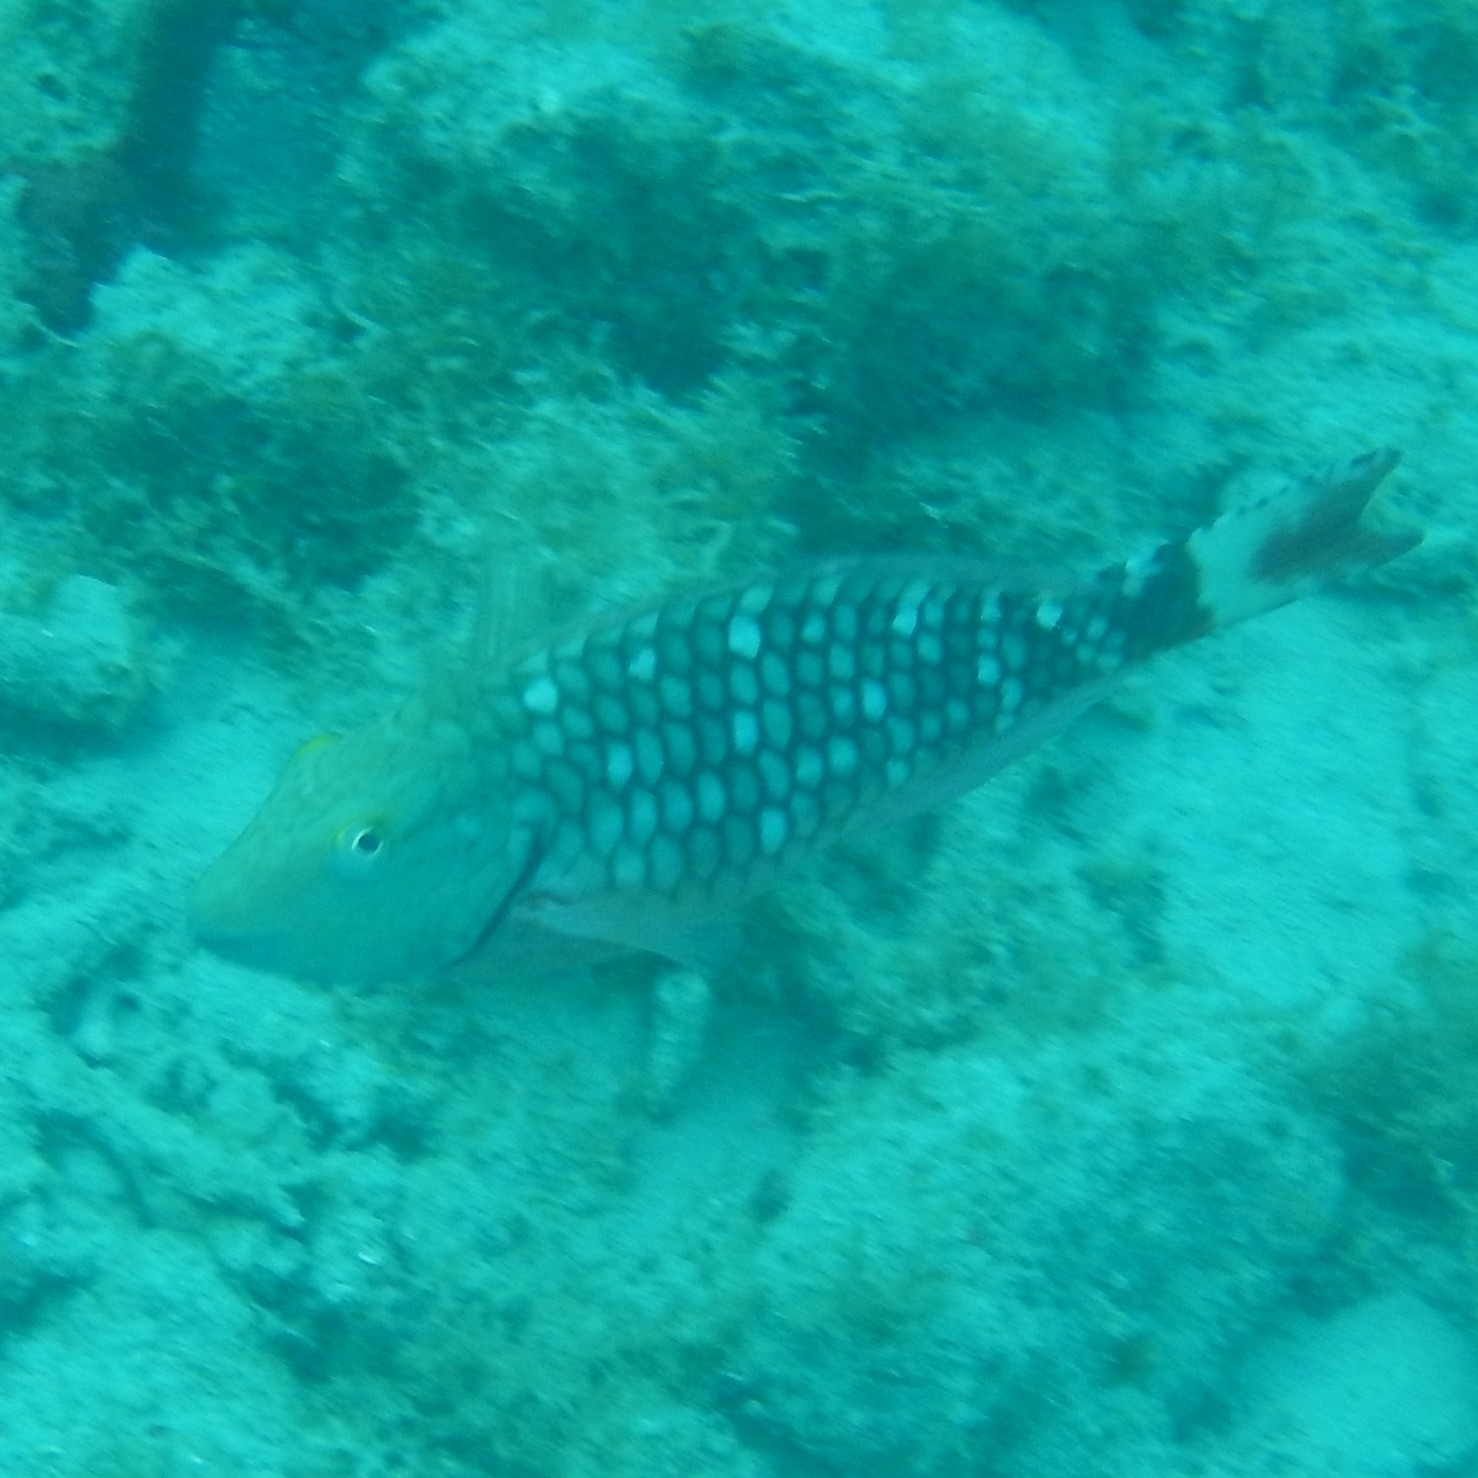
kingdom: Animalia
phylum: Chordata
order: Perciformes
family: Scaridae
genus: Sparisoma
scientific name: Sparisoma viride
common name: Stoplight parrotfish
